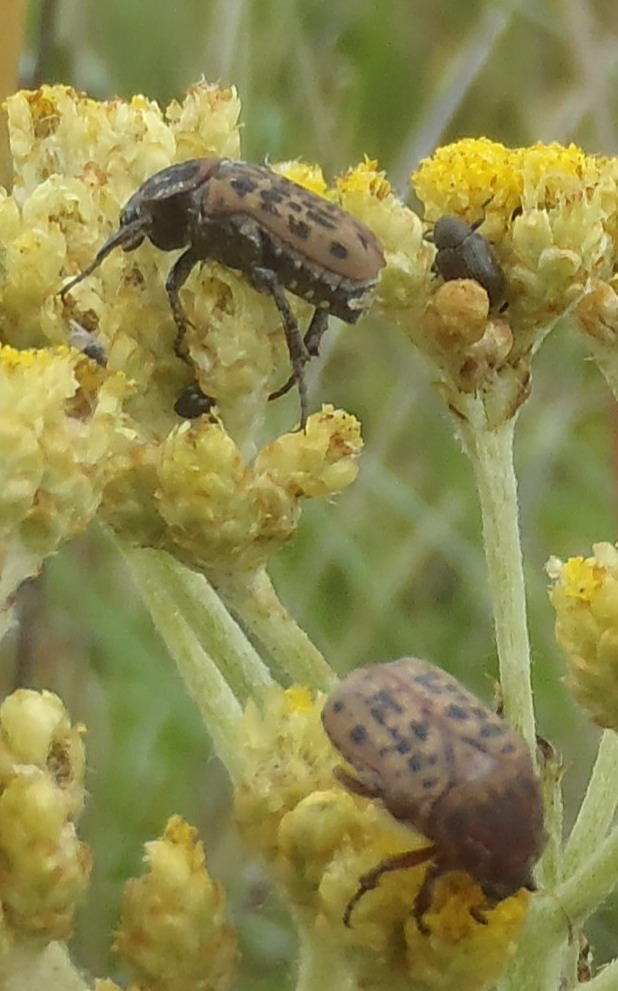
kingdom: Animalia
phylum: Arthropoda
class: Insecta
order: Coleoptera
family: Scarabaeidae
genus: Atrichelaphinis
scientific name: Atrichelaphinis tigrina
